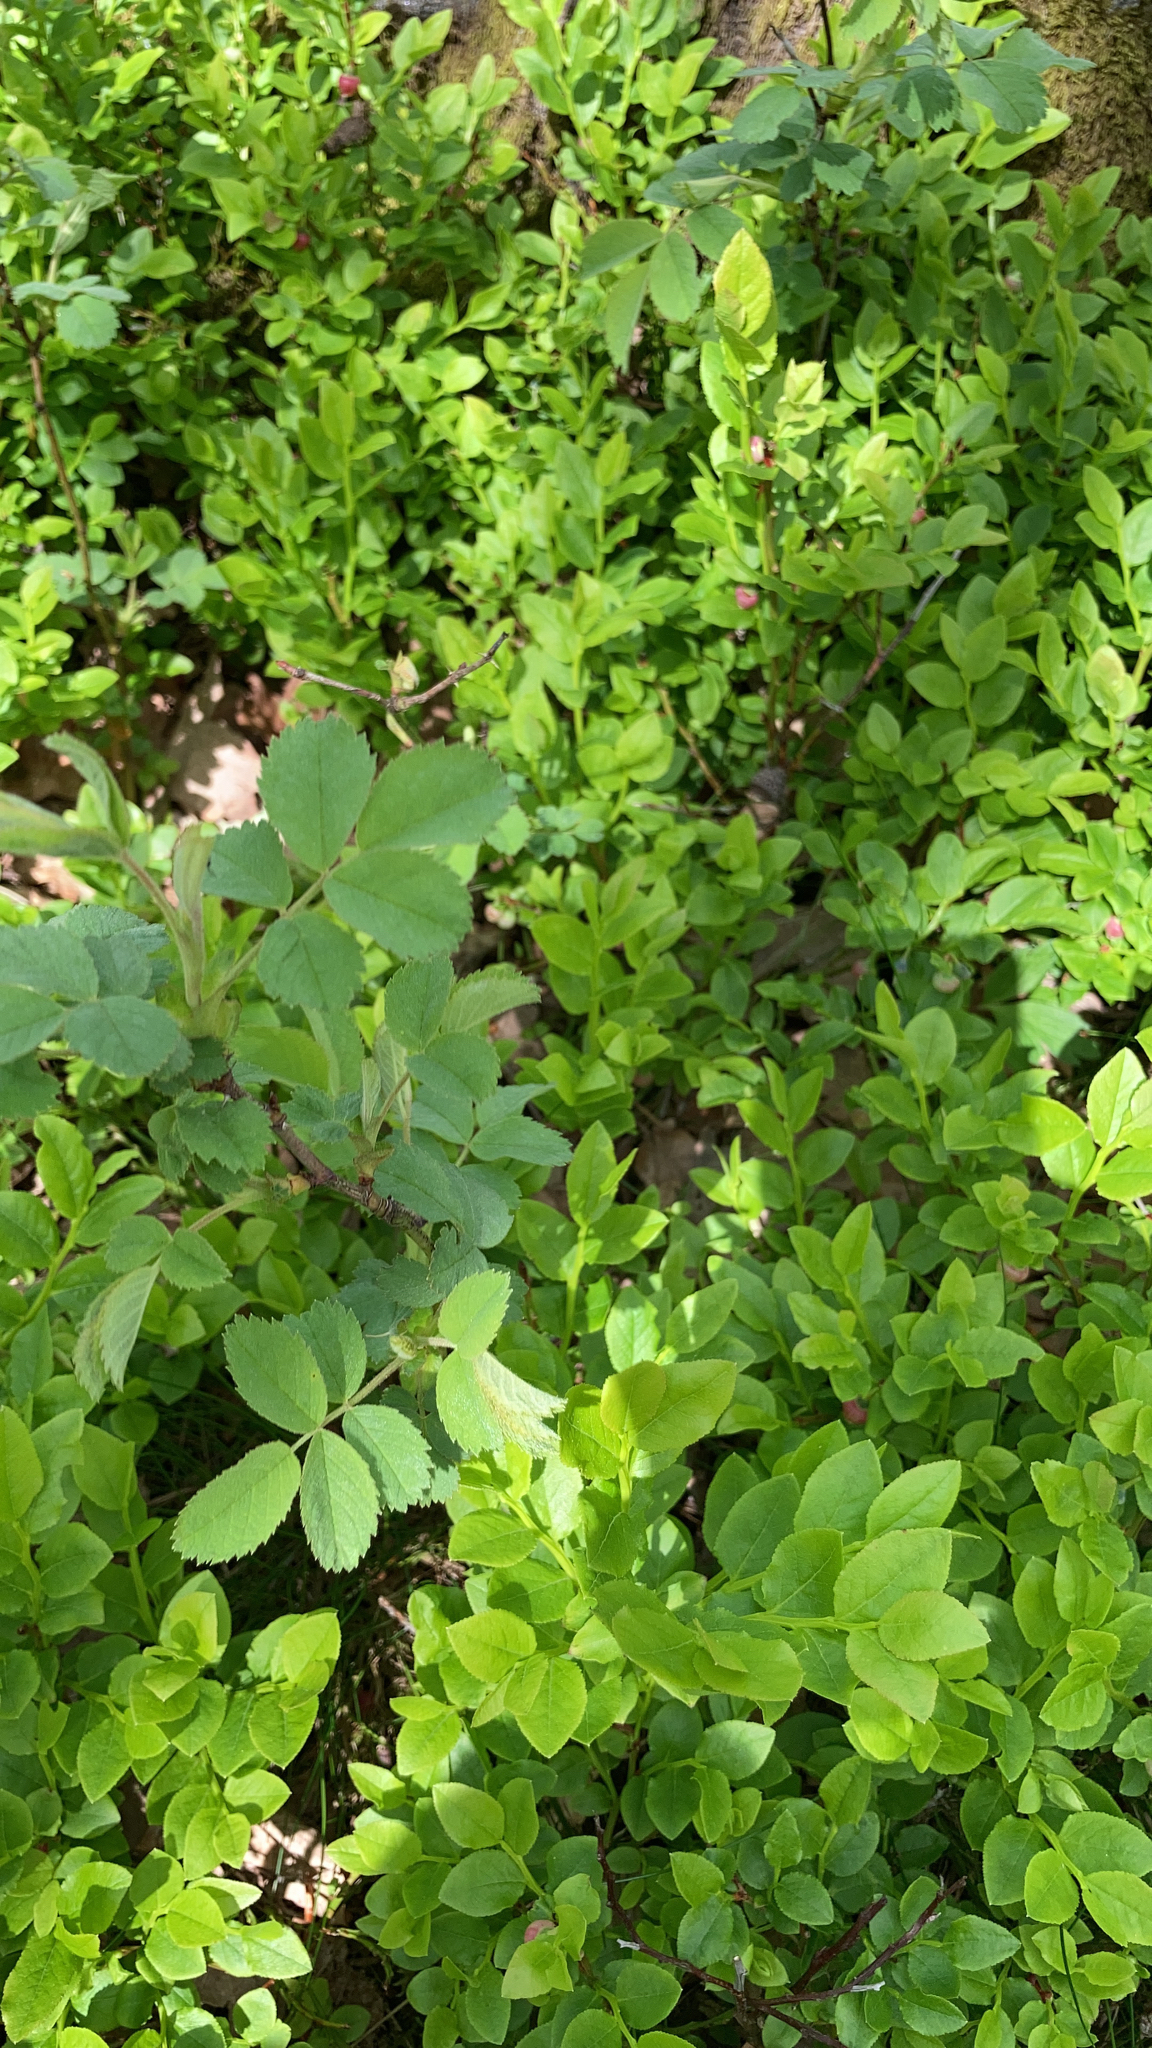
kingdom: Plantae
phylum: Tracheophyta
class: Magnoliopsida
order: Ericales
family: Ericaceae
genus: Vaccinium
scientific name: Vaccinium myrtillus
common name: Bilberry
